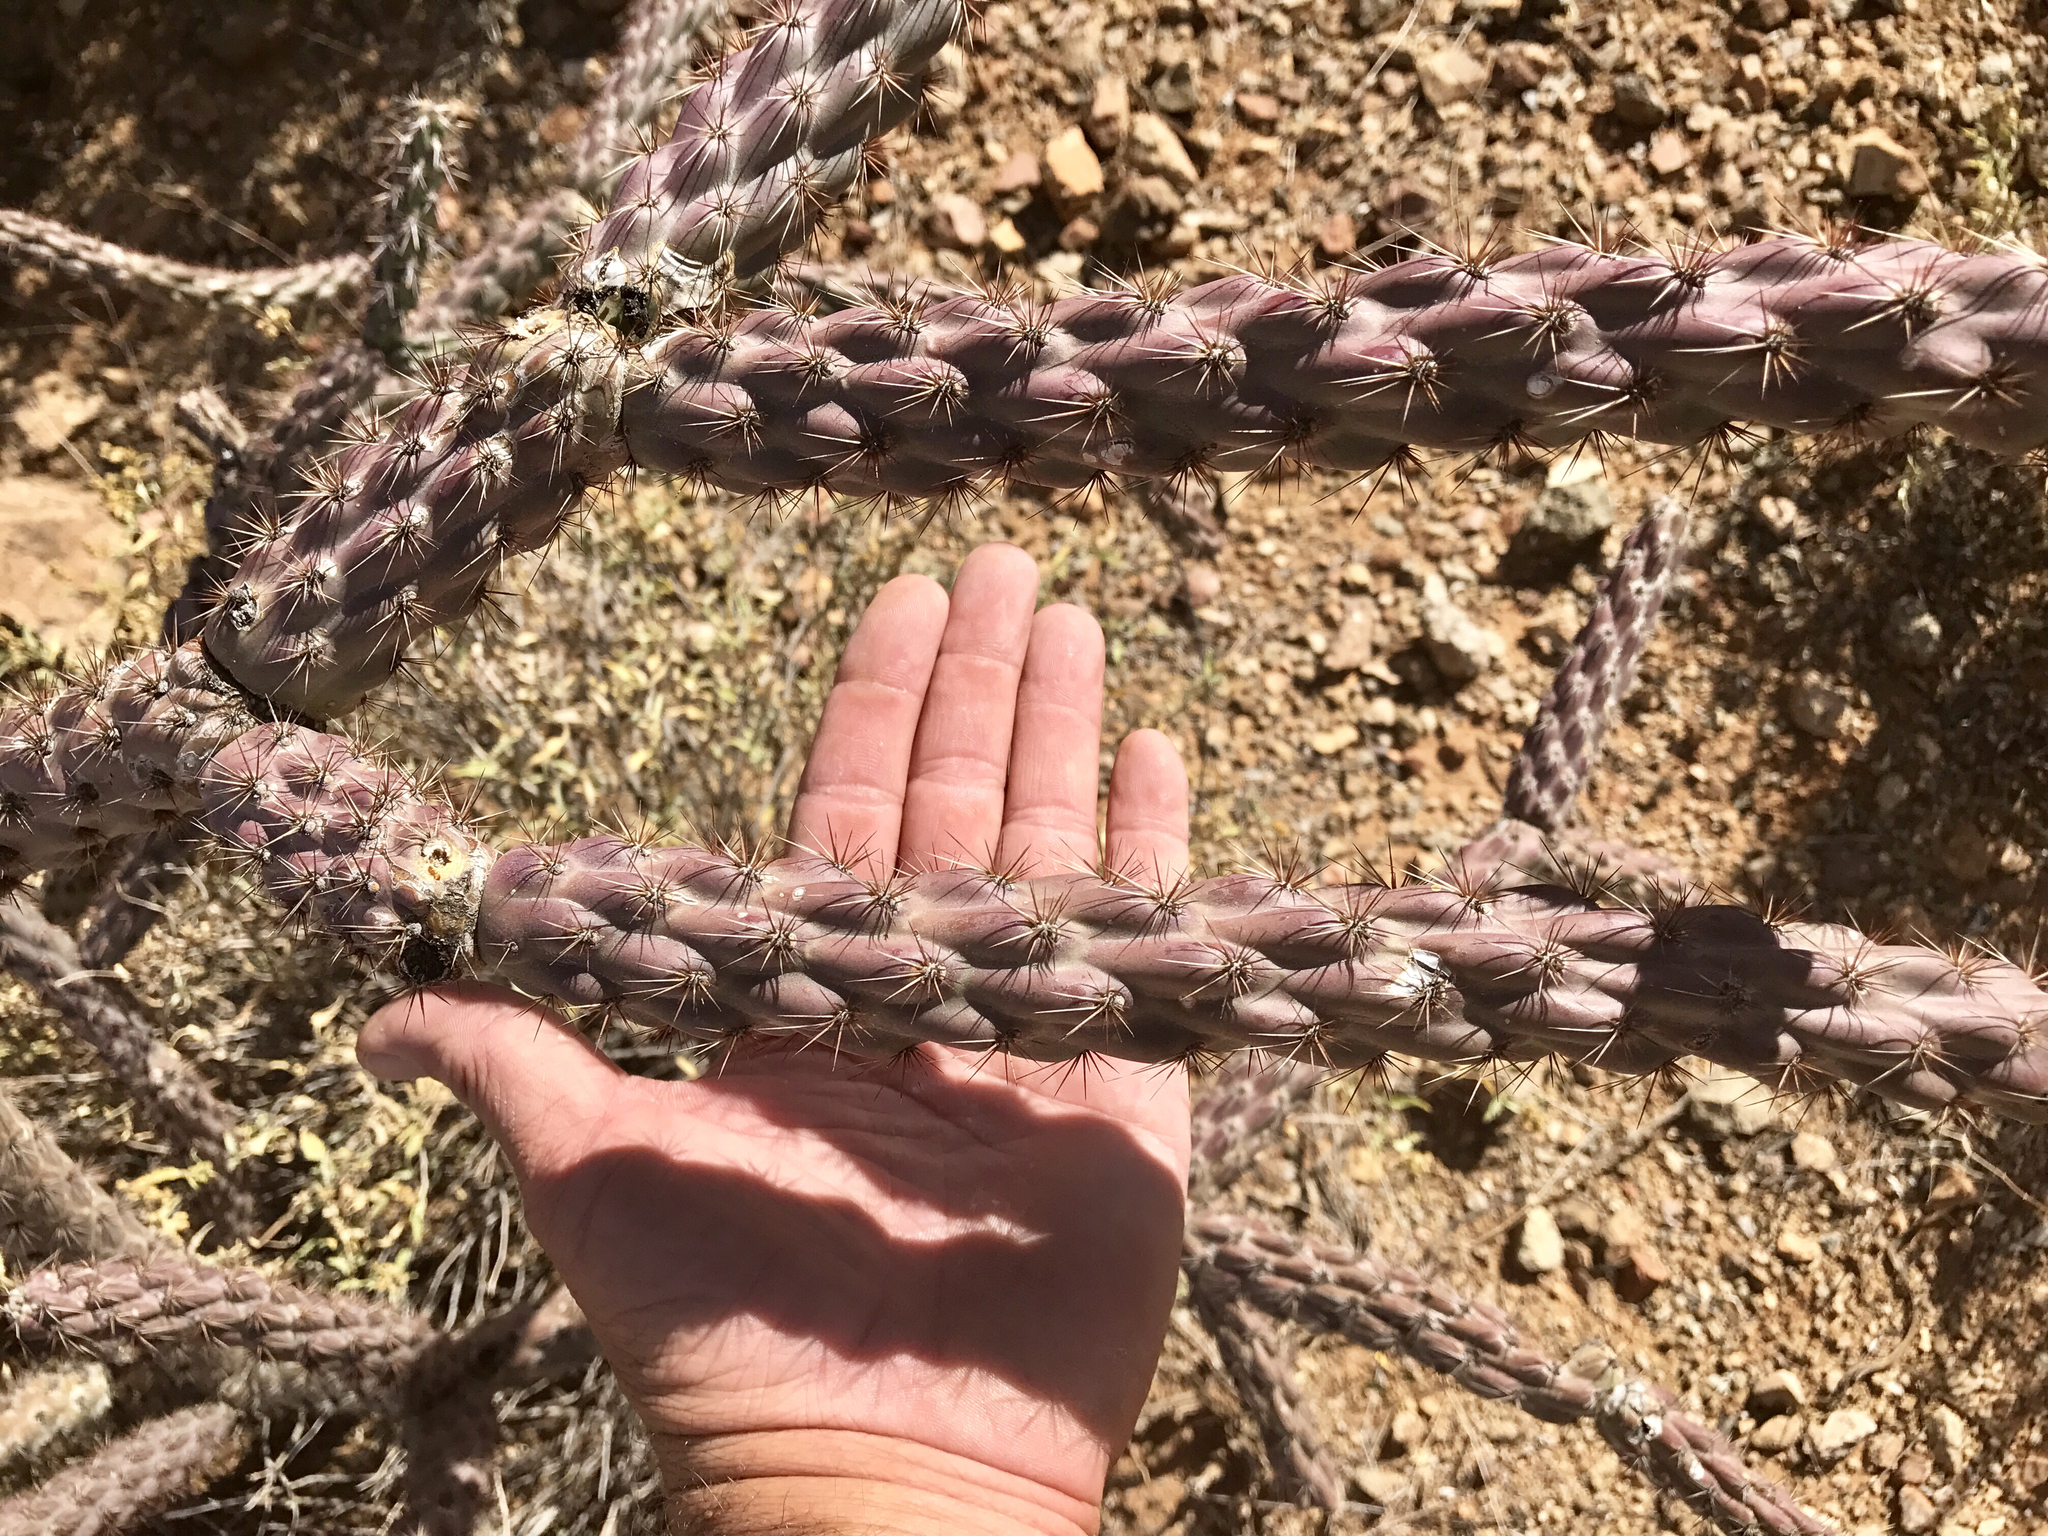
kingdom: Plantae
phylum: Tracheophyta
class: Magnoliopsida
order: Caryophyllales
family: Cactaceae
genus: Cylindropuntia
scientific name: Cylindropuntia thurberi
